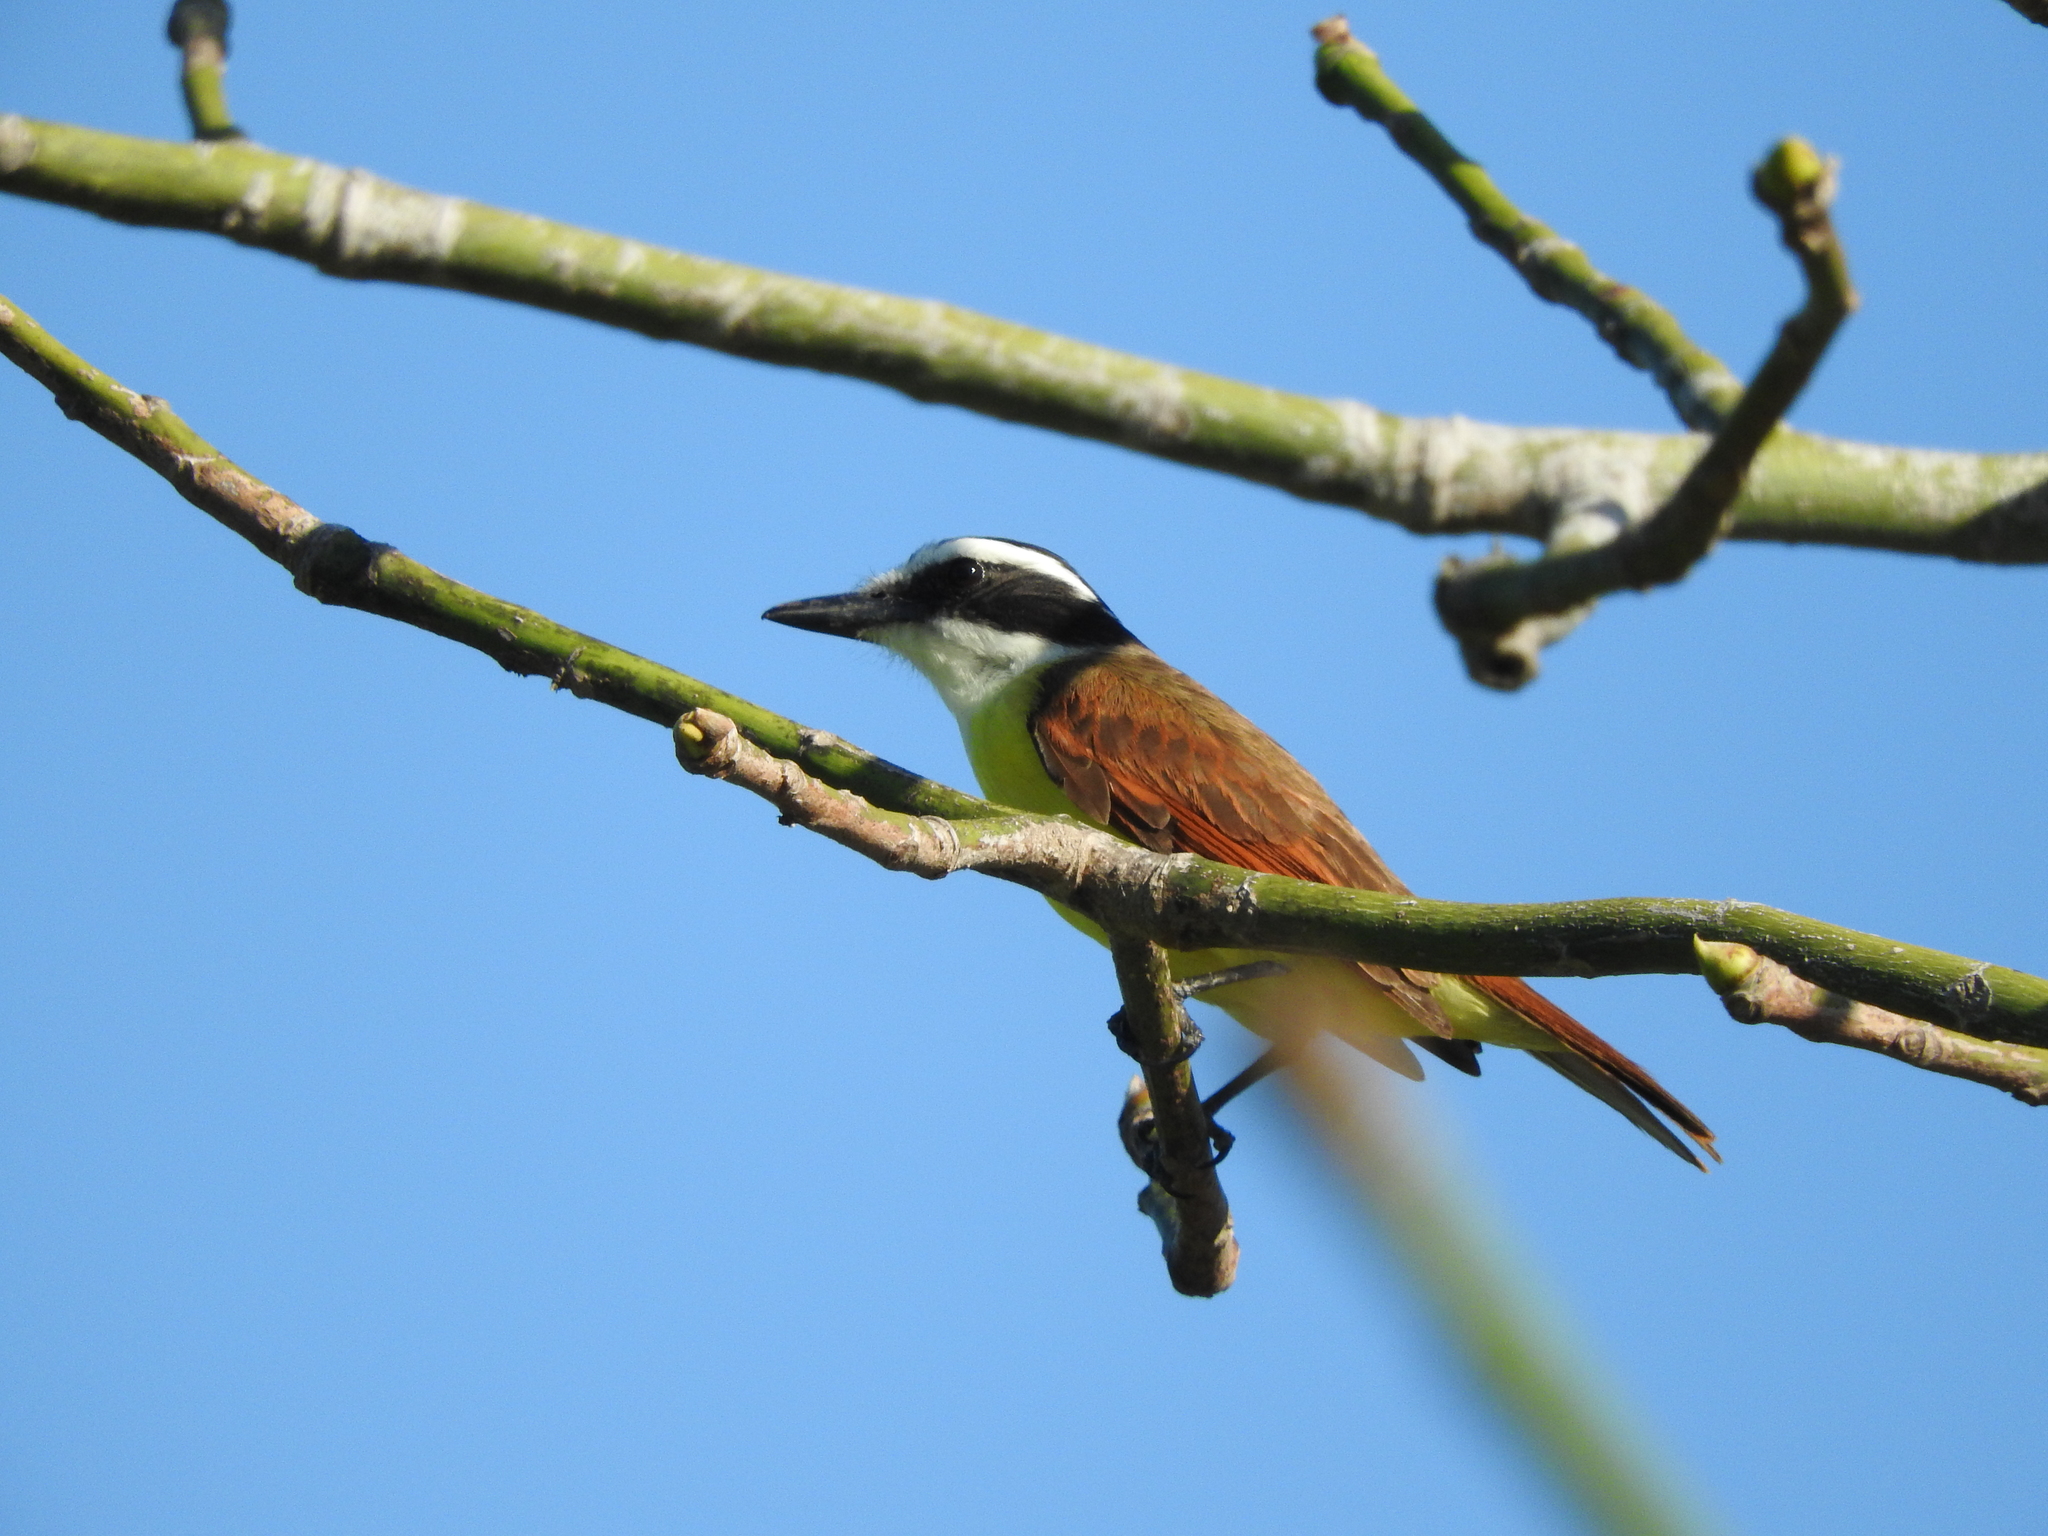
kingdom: Animalia
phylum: Chordata
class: Aves
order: Passeriformes
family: Tyrannidae
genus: Pitangus
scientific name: Pitangus sulphuratus
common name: Great kiskadee
